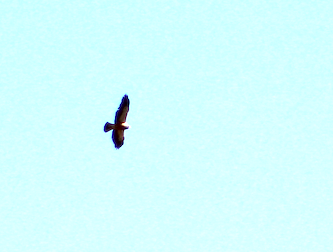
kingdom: Animalia
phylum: Chordata
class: Aves
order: Accipitriformes
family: Accipitridae
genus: Buteo
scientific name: Buteo swainsoni
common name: Swainson's hawk
